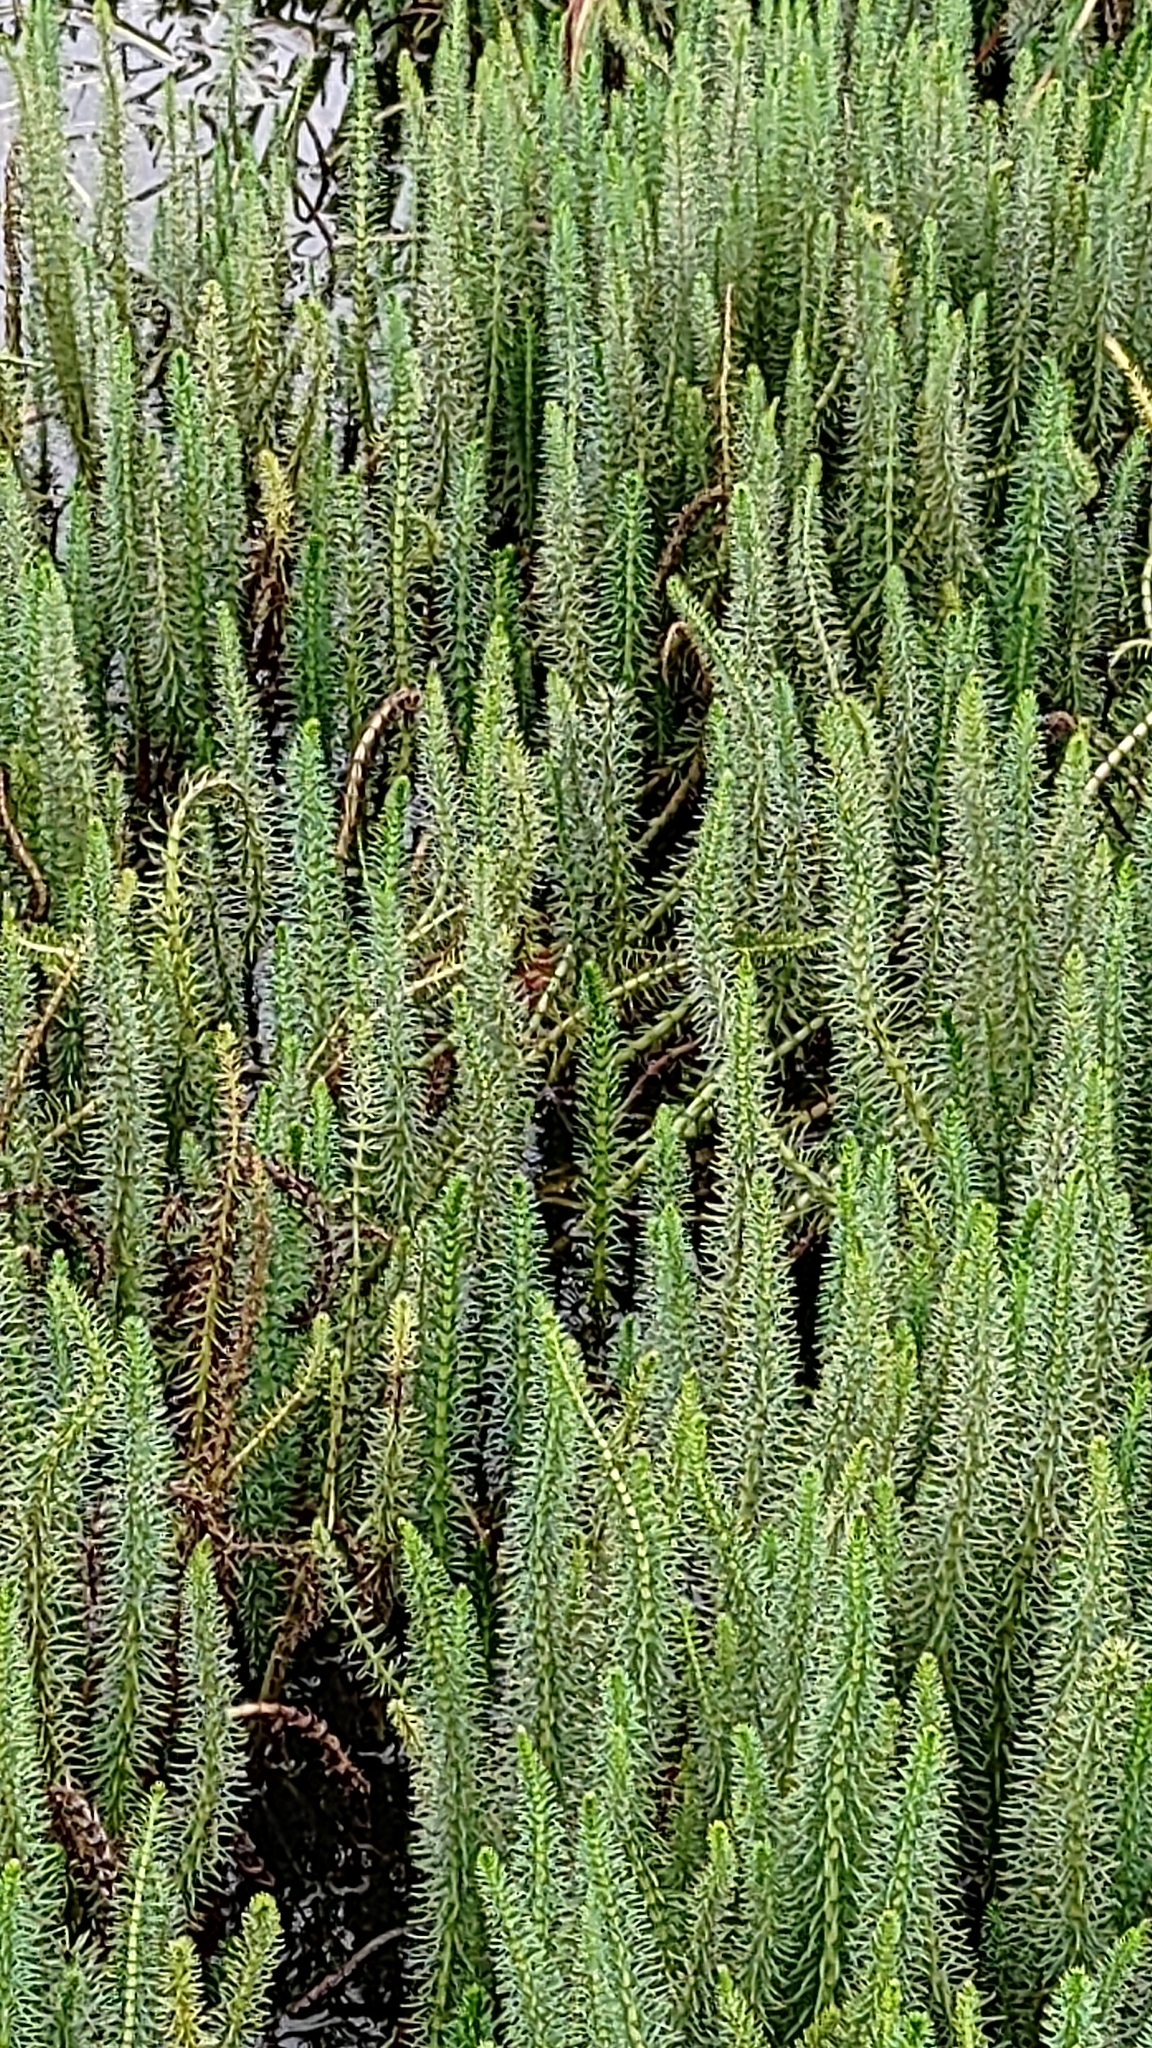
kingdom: Plantae
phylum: Tracheophyta
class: Magnoliopsida
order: Lamiales
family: Plantaginaceae
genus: Hippuris
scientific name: Hippuris vulgaris
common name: Mare's-tail
